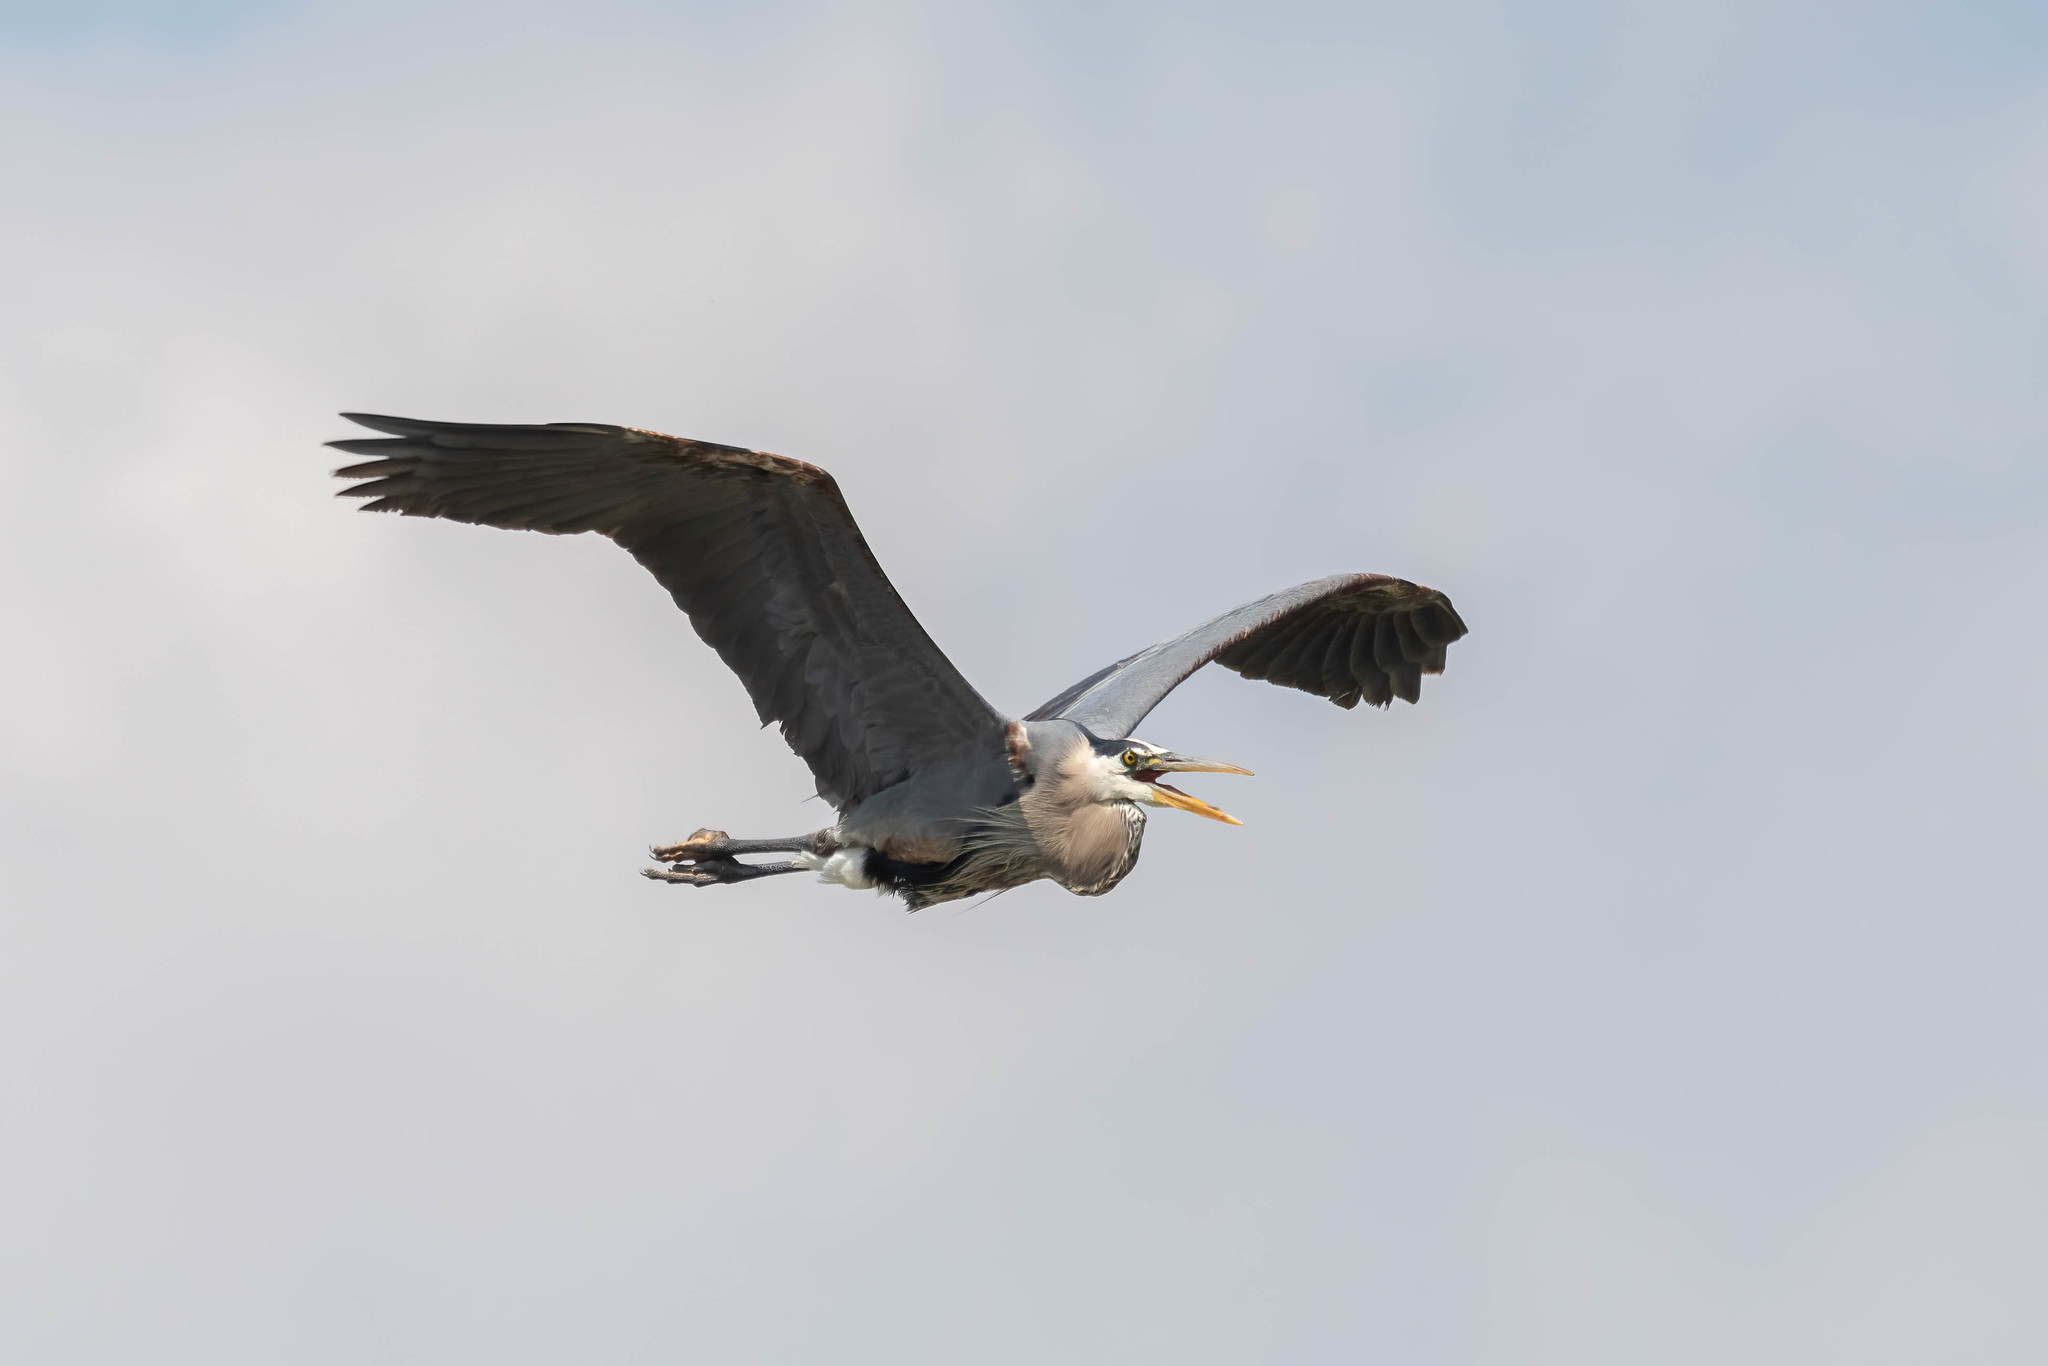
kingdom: Animalia
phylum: Chordata
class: Aves
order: Pelecaniformes
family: Ardeidae
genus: Ardea
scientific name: Ardea herodias
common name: Great blue heron
